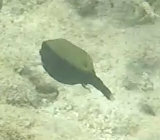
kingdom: Animalia
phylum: Chordata
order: Tetraodontiformes
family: Ostraciidae
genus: Ostracion
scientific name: Ostracion cyanurus
